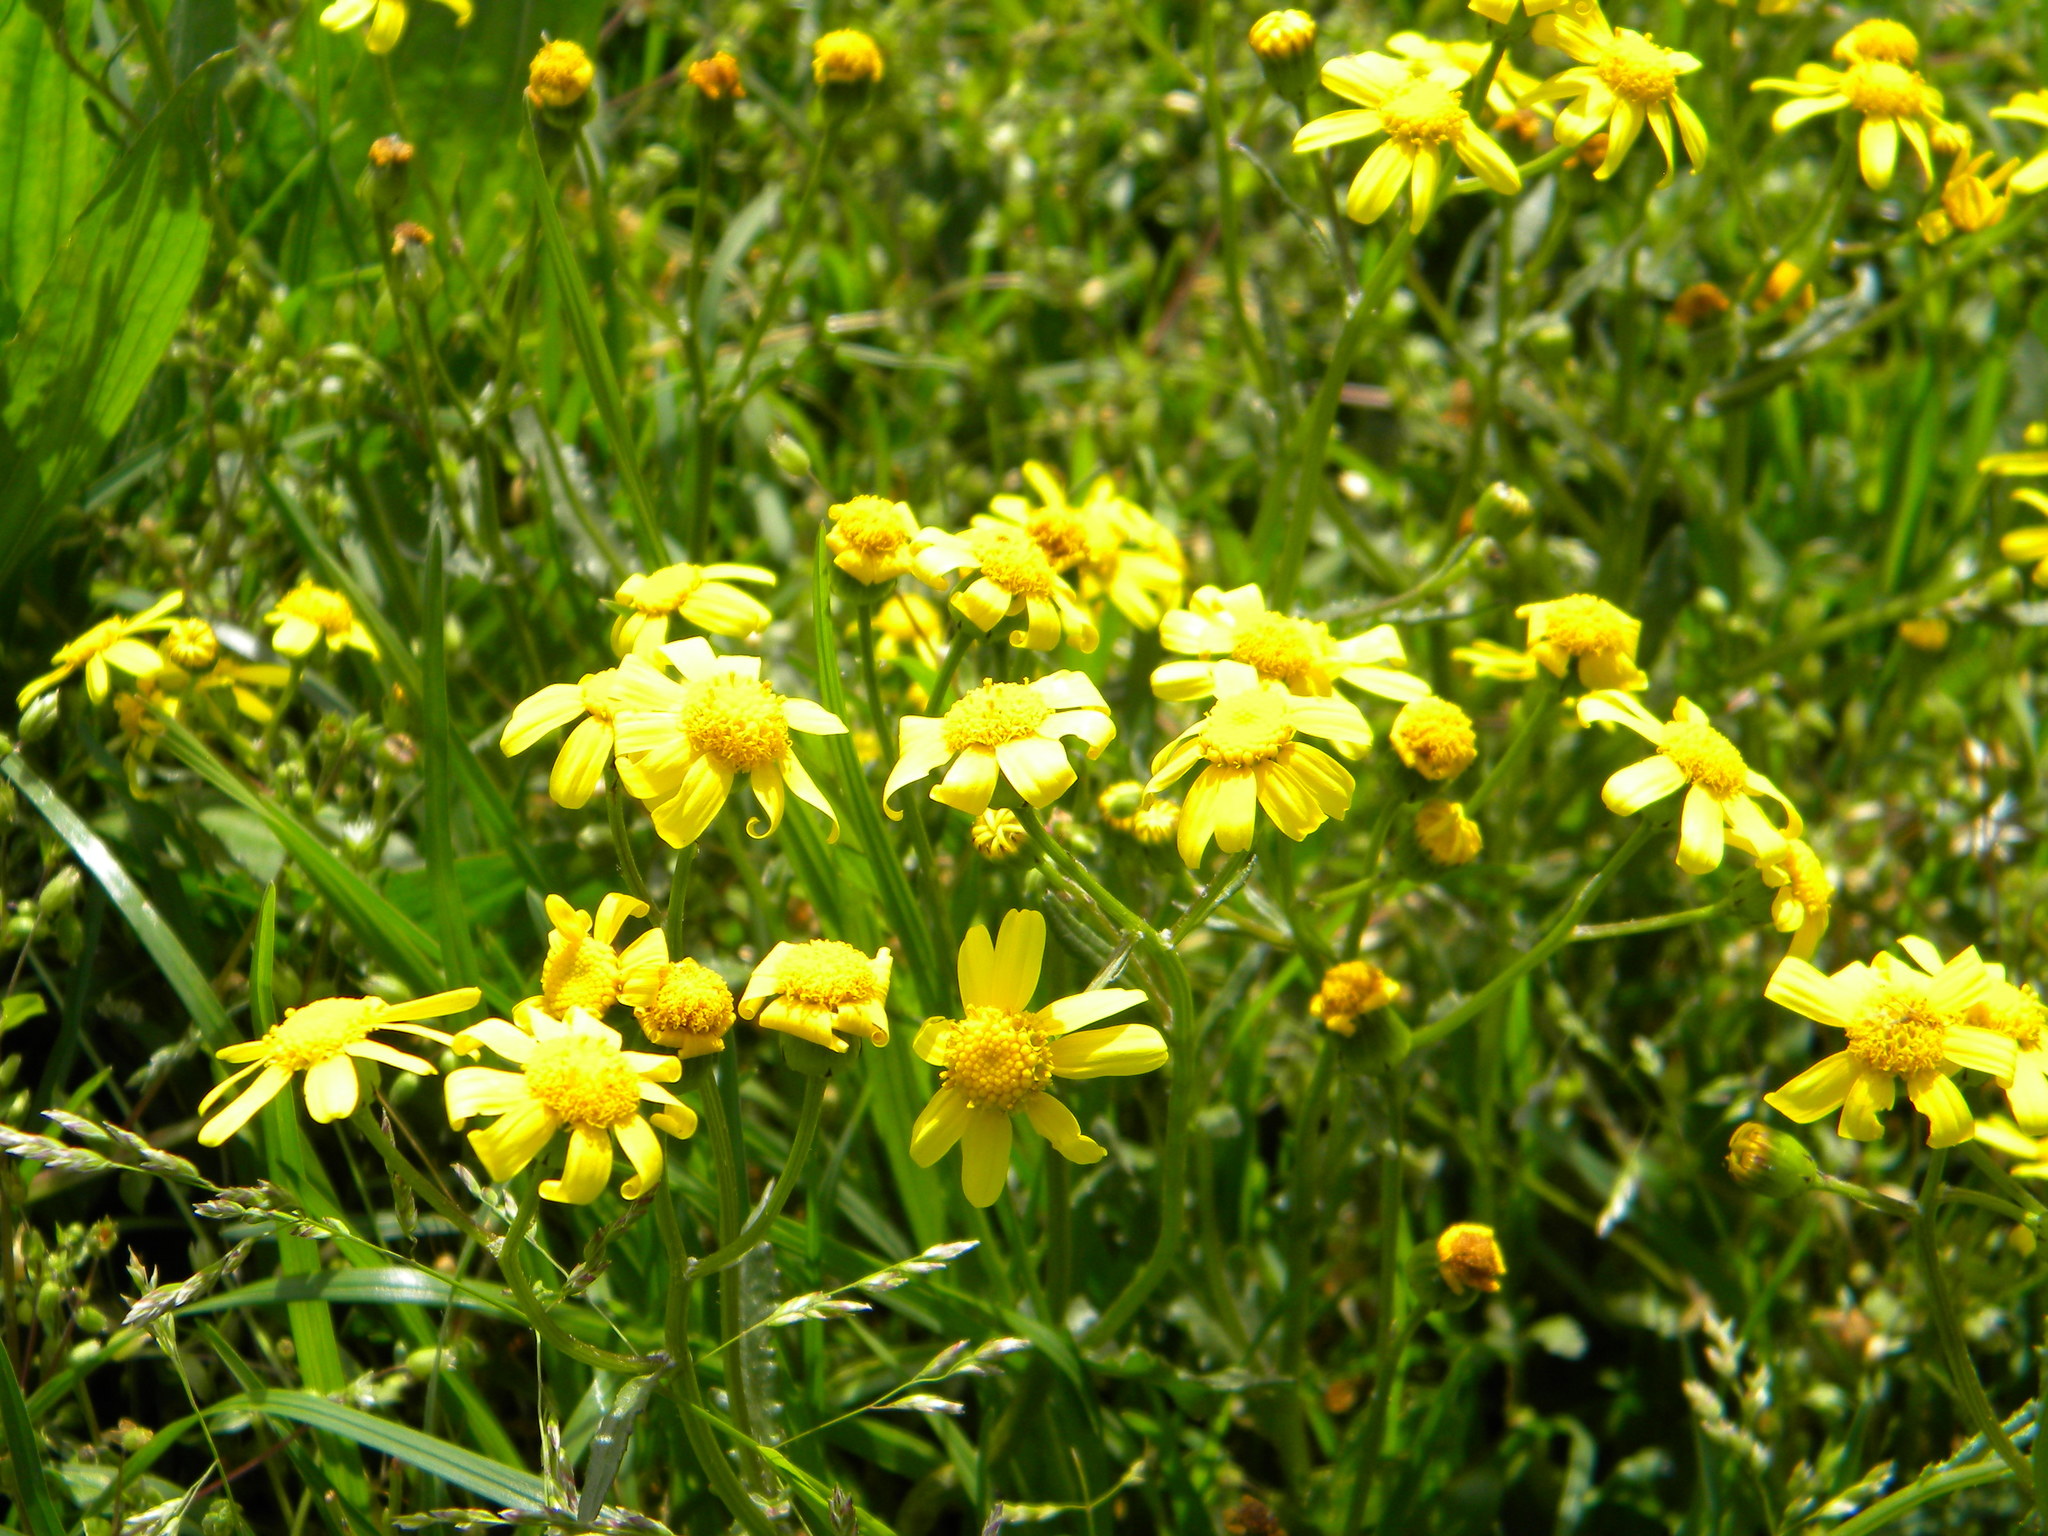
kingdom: Plantae
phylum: Tracheophyta
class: Magnoliopsida
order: Asterales
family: Asteraceae
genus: Senecio
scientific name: Senecio littoreus
